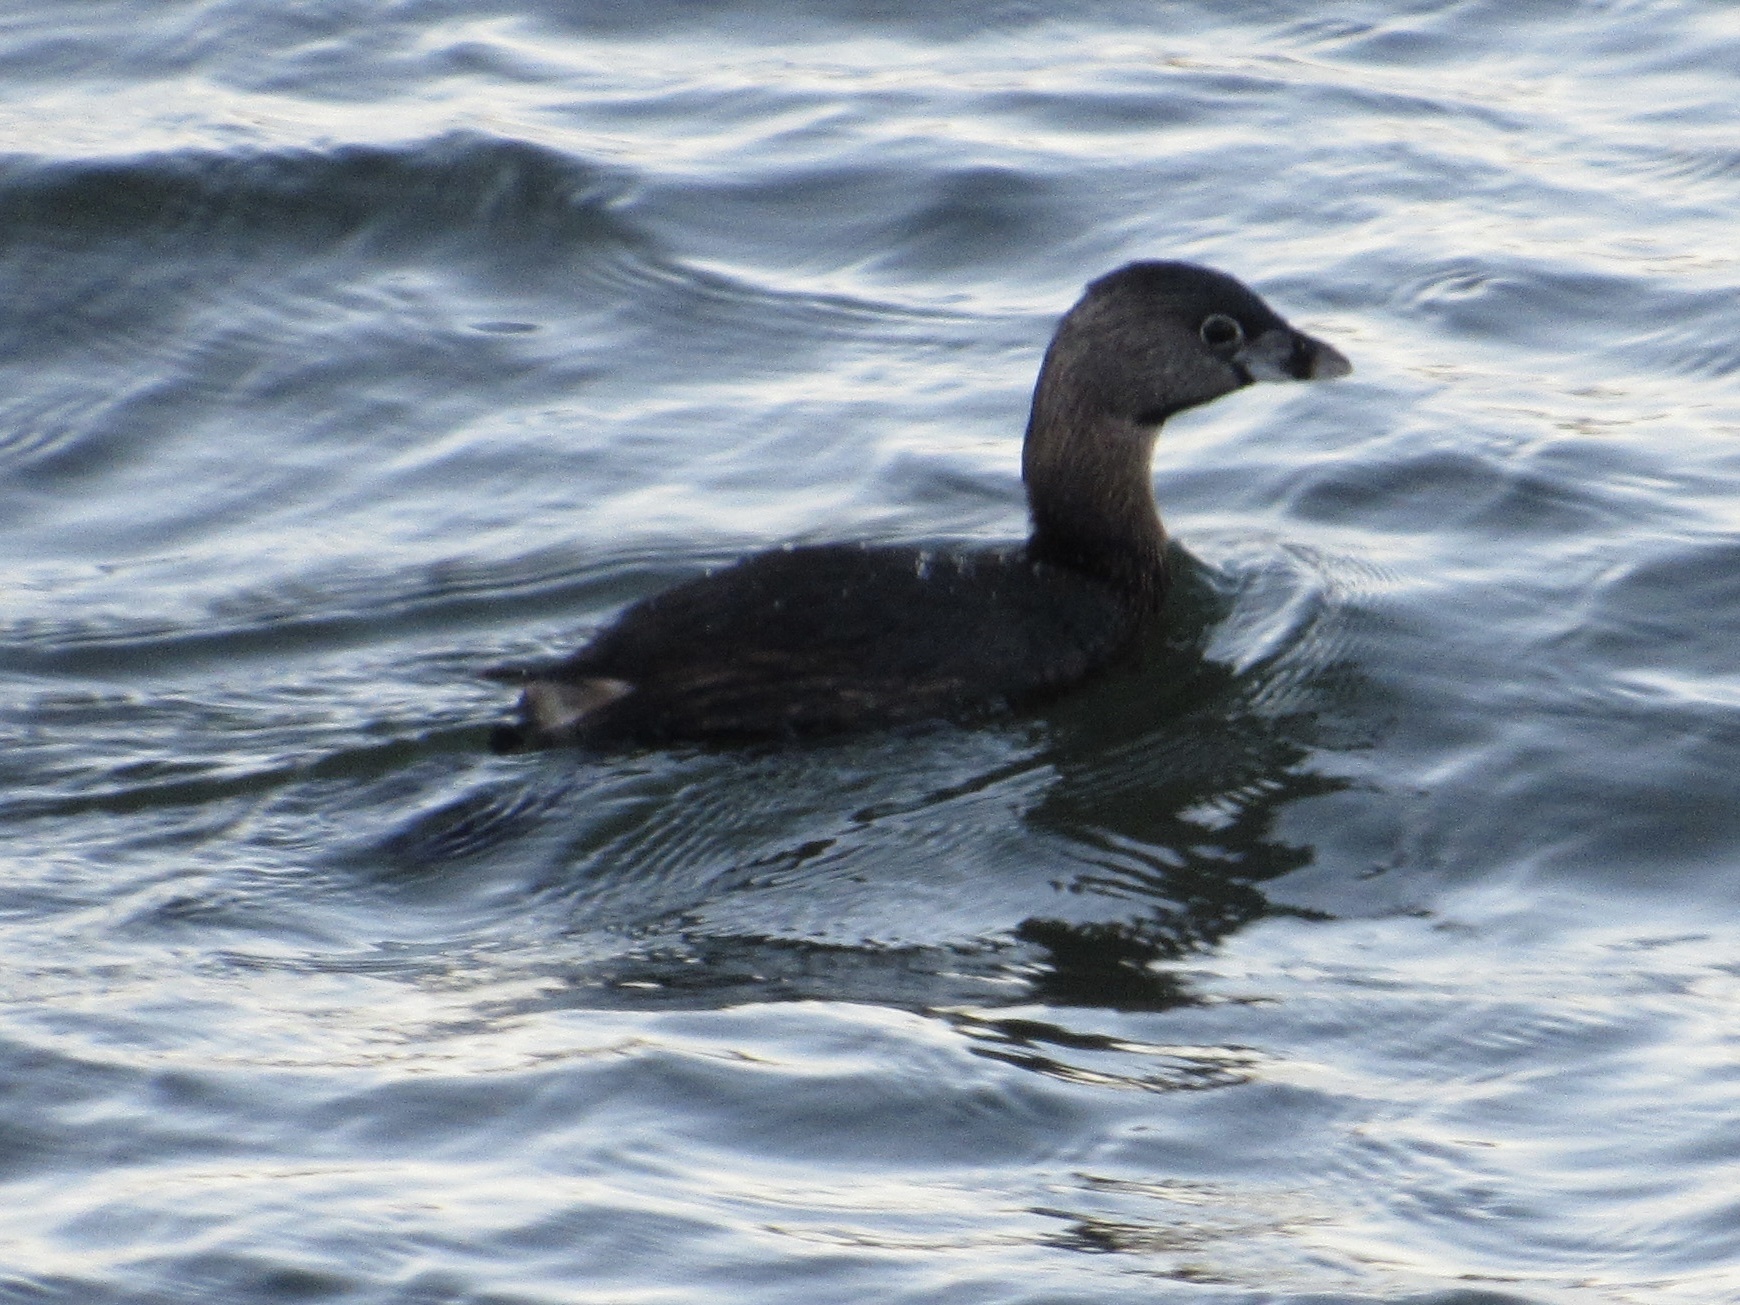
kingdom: Animalia
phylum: Chordata
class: Aves
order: Podicipediformes
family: Podicipedidae
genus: Podilymbus
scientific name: Podilymbus podiceps
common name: Pied-billed grebe
